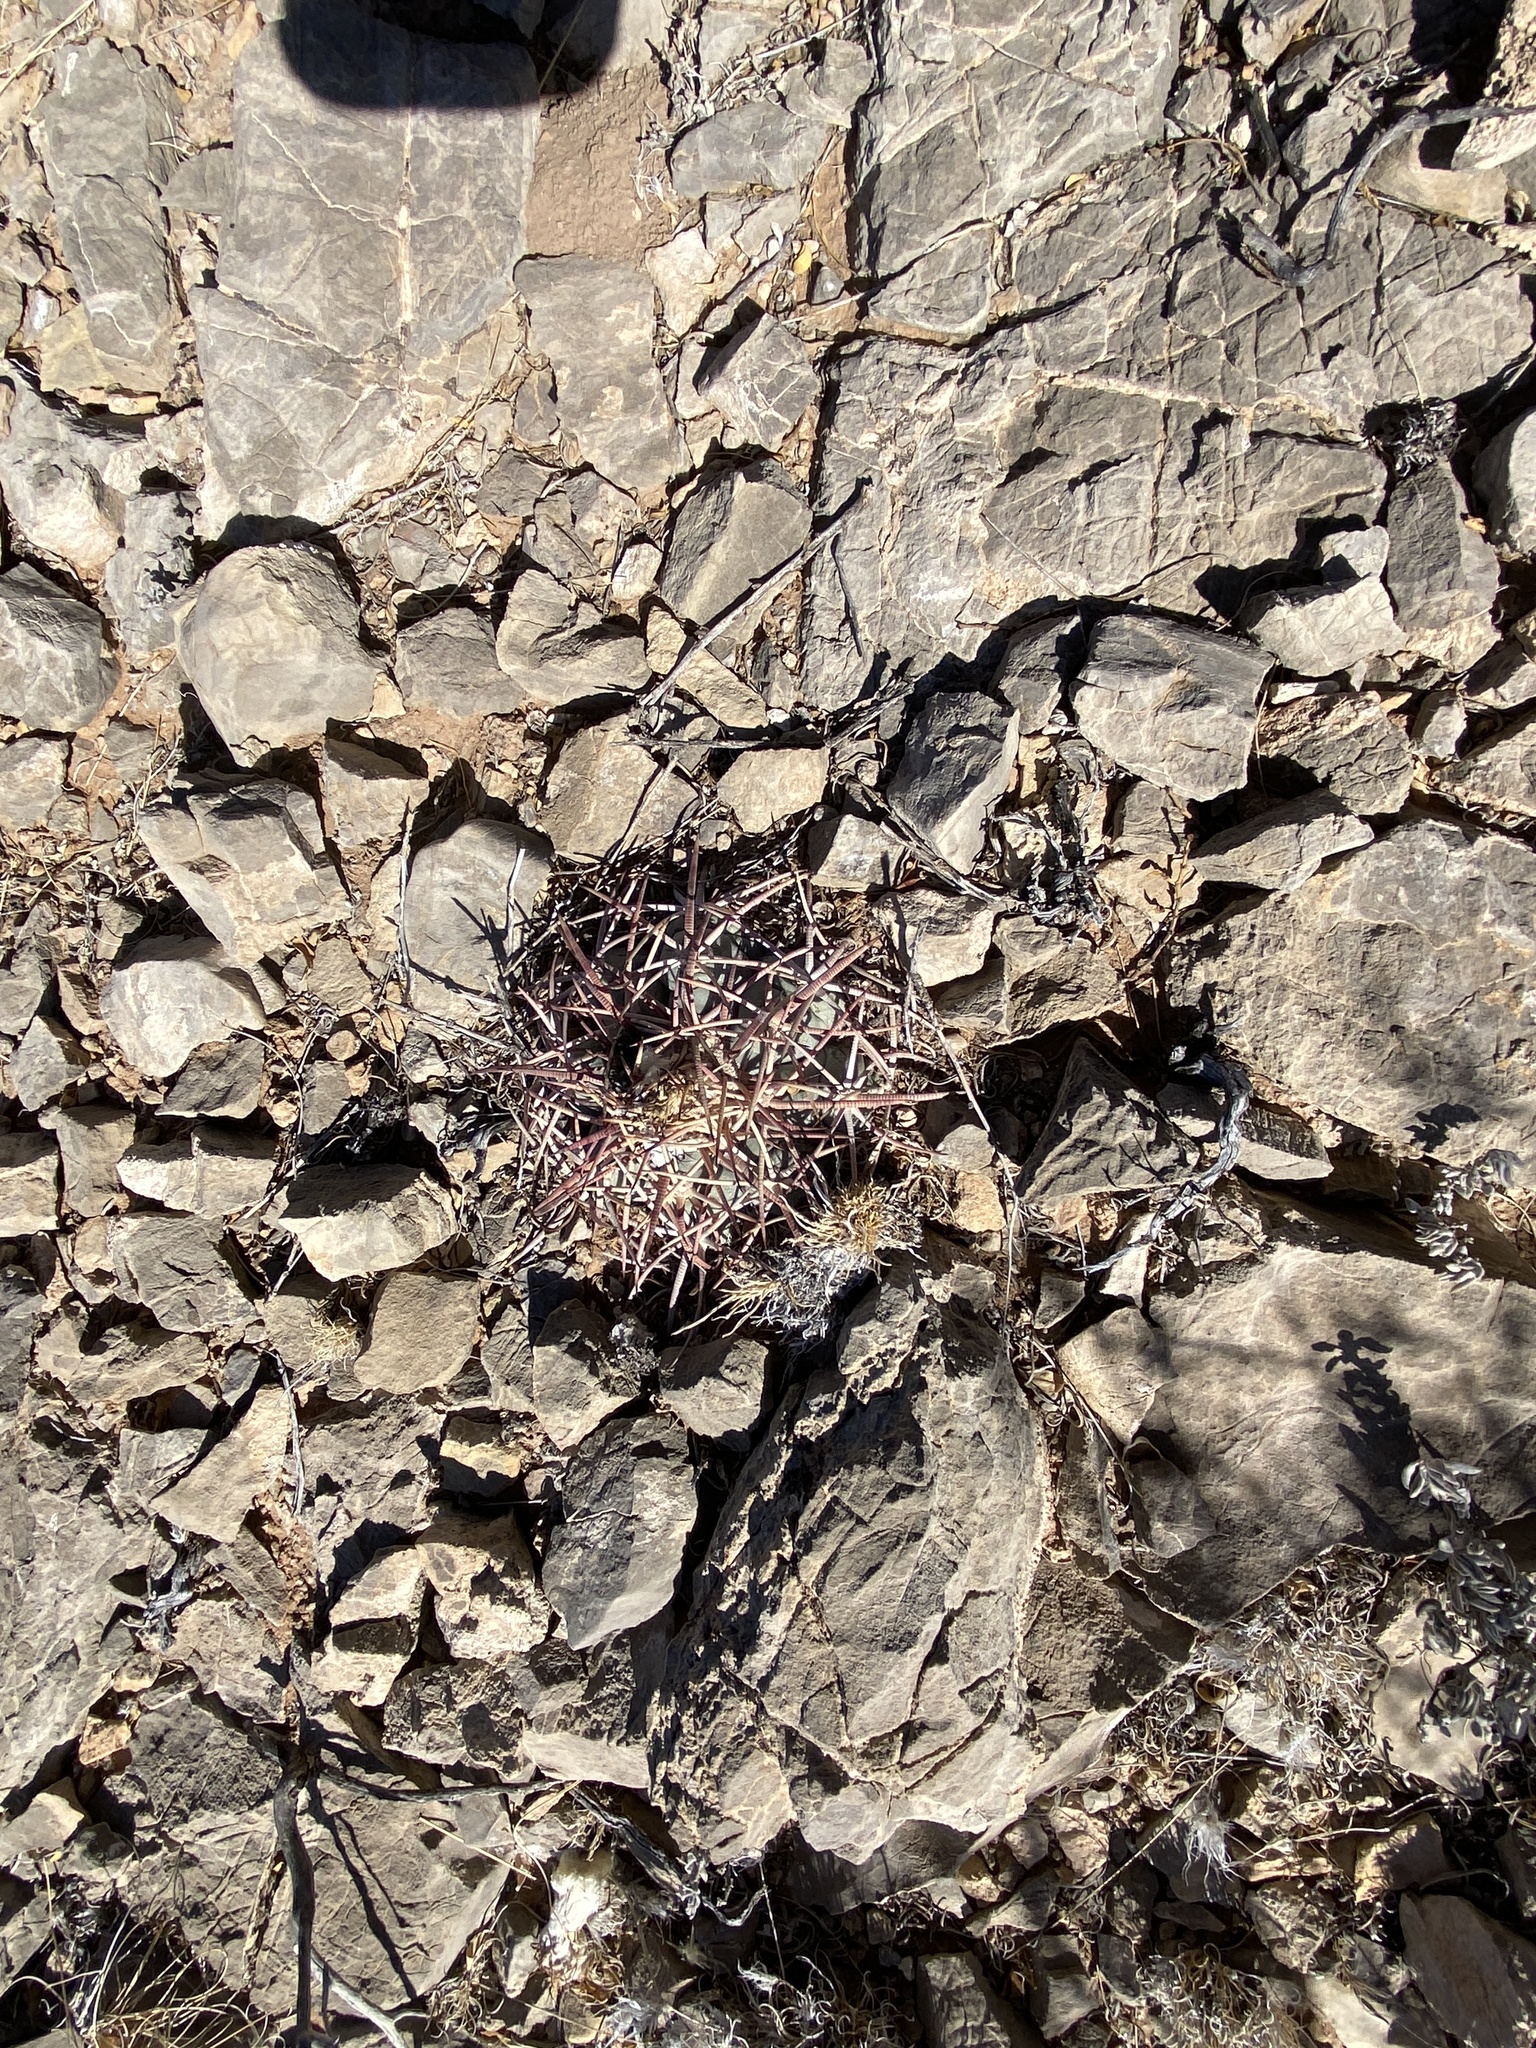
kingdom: Plantae
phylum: Tracheophyta
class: Magnoliopsida
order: Caryophyllales
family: Cactaceae
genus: Echinocactus
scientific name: Echinocactus horizonthalonius
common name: Devilshead
